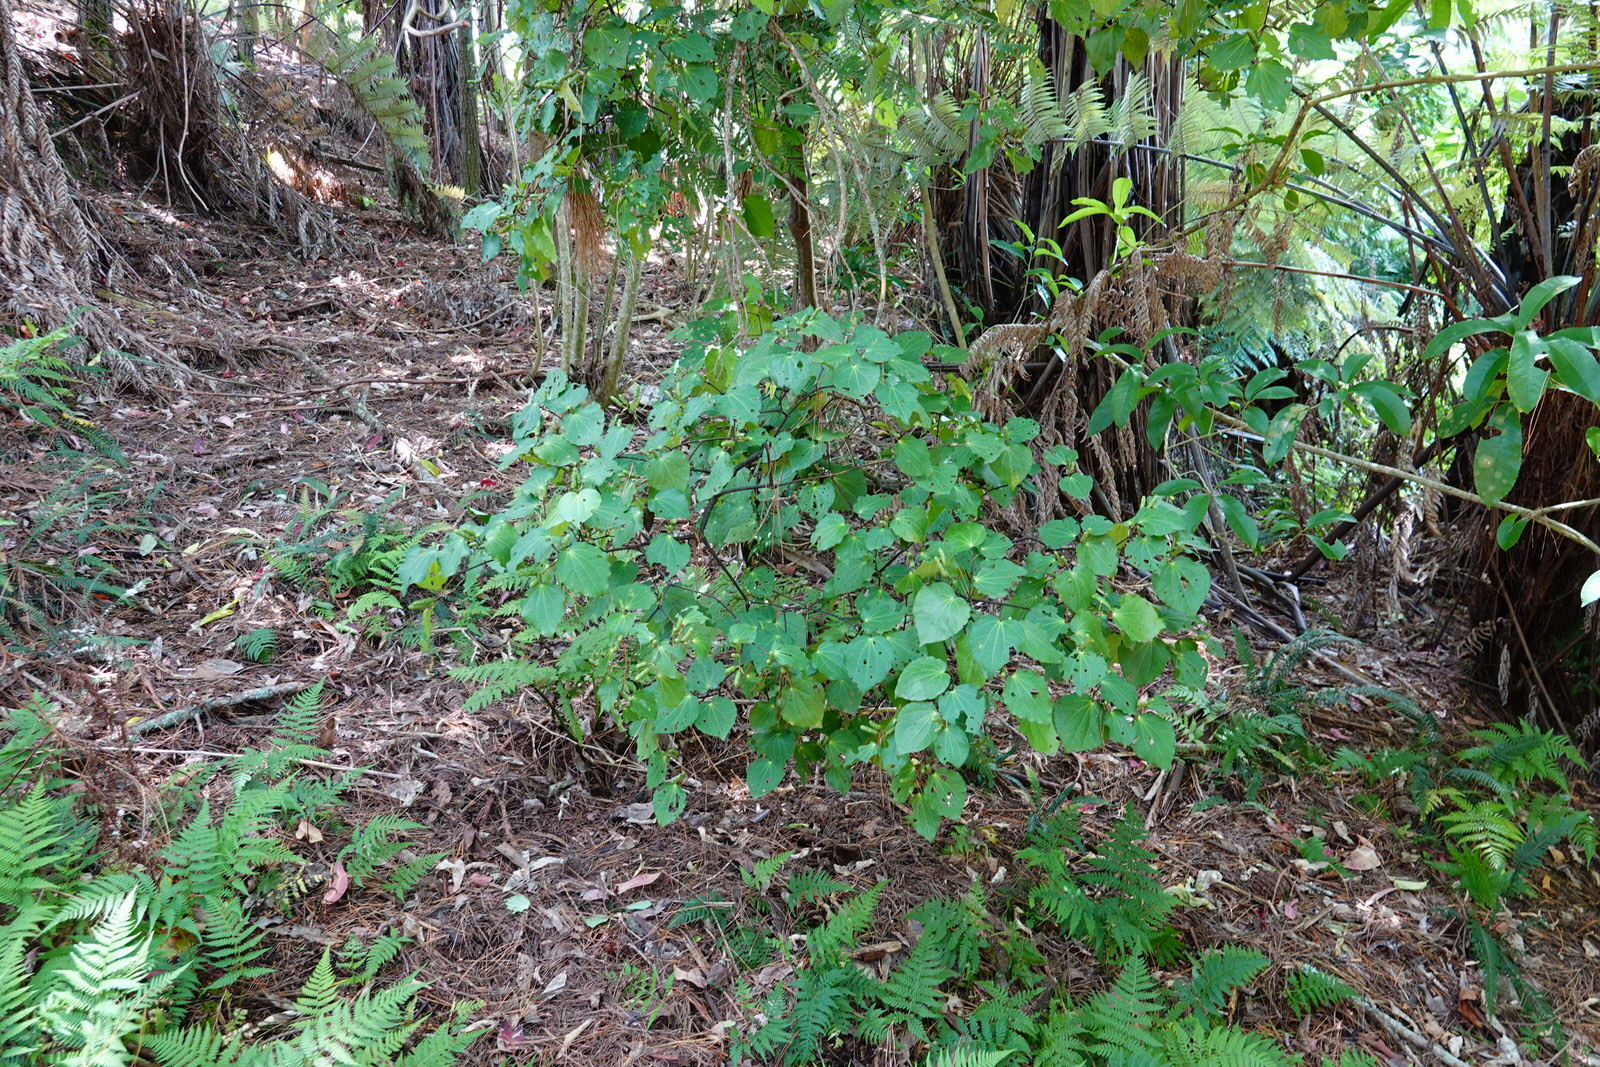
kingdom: Plantae
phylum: Tracheophyta
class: Magnoliopsida
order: Piperales
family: Piperaceae
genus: Macropiper
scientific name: Macropiper excelsum
